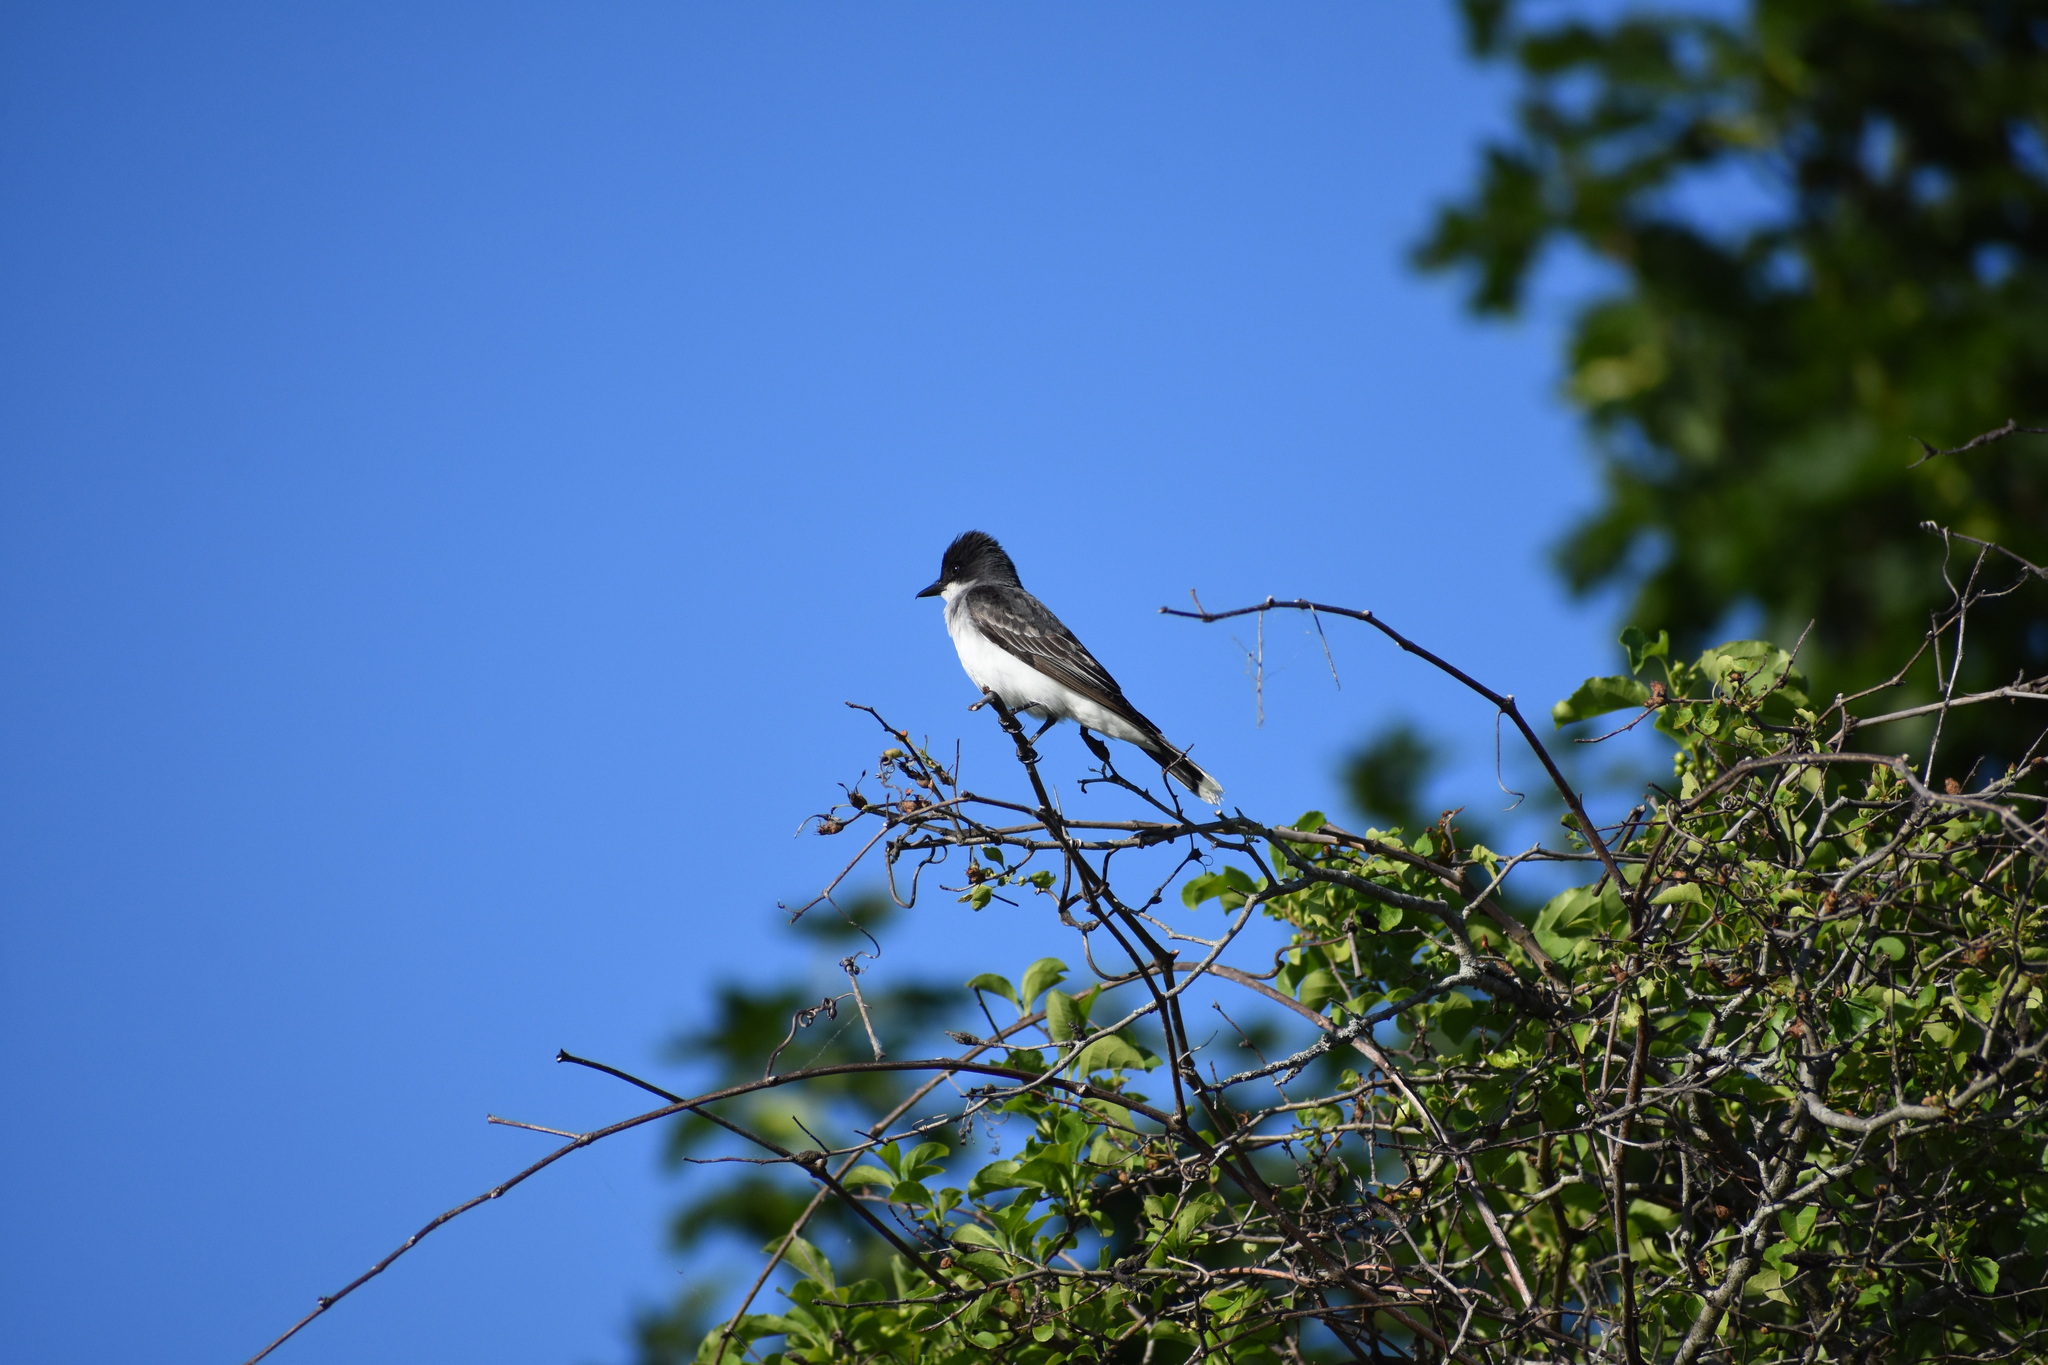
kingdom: Animalia
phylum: Chordata
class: Aves
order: Passeriformes
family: Tyrannidae
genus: Tyrannus
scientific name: Tyrannus tyrannus
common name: Eastern kingbird
